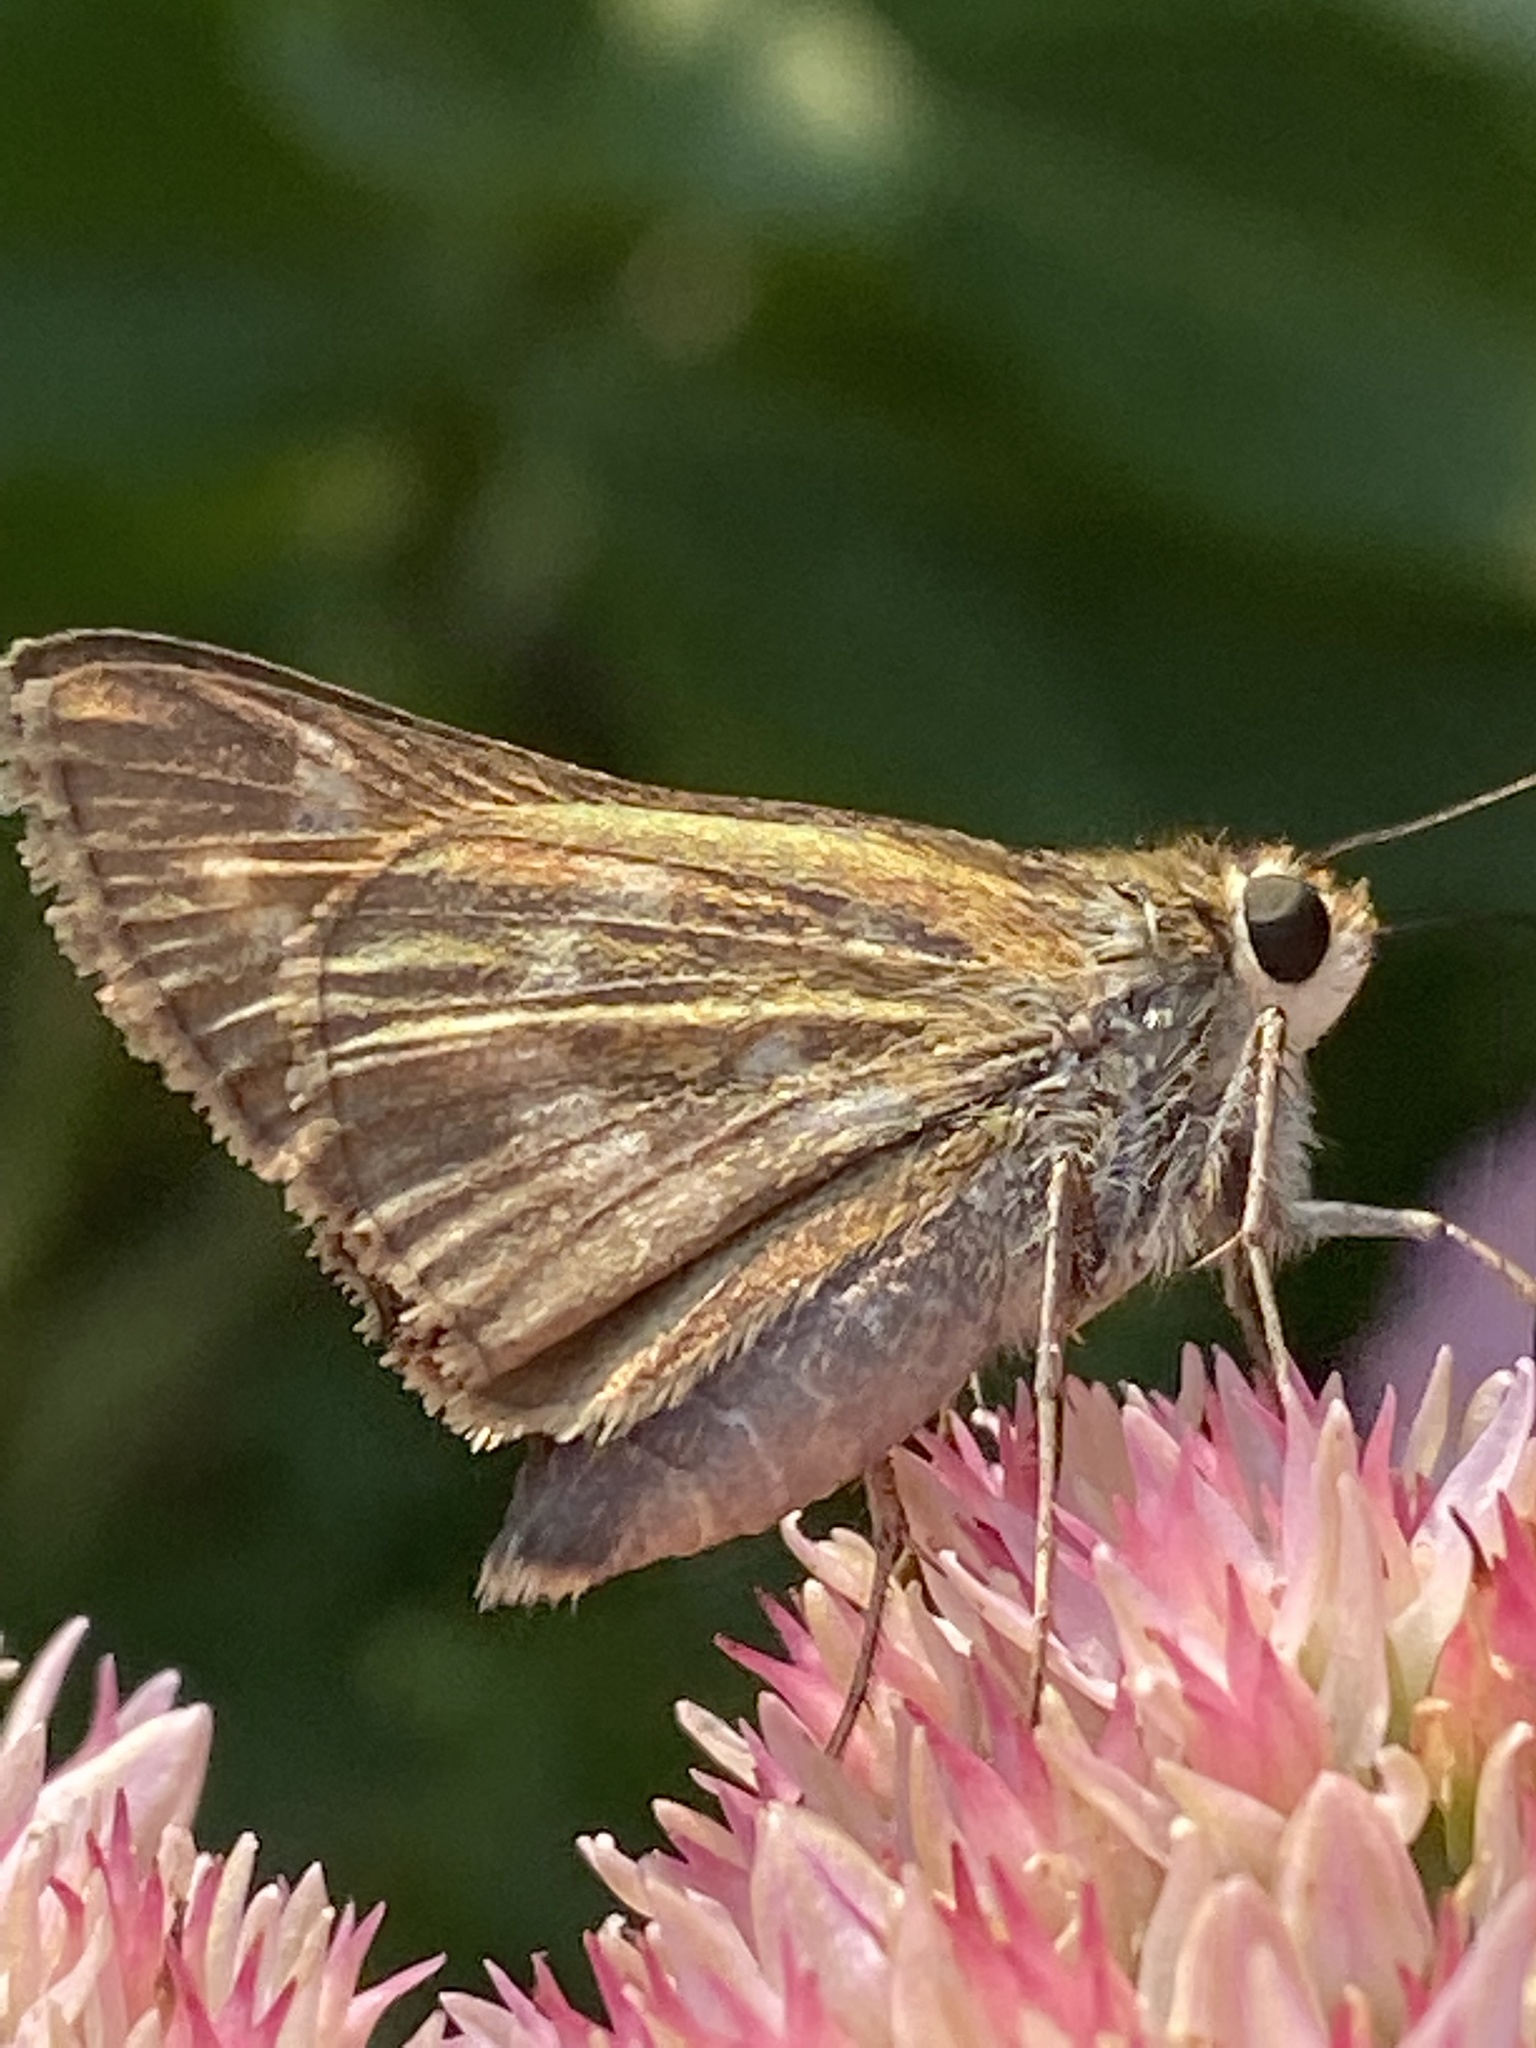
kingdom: Animalia
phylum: Arthropoda
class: Insecta
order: Lepidoptera
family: Hesperiidae
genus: Atalopedes
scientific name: Atalopedes
